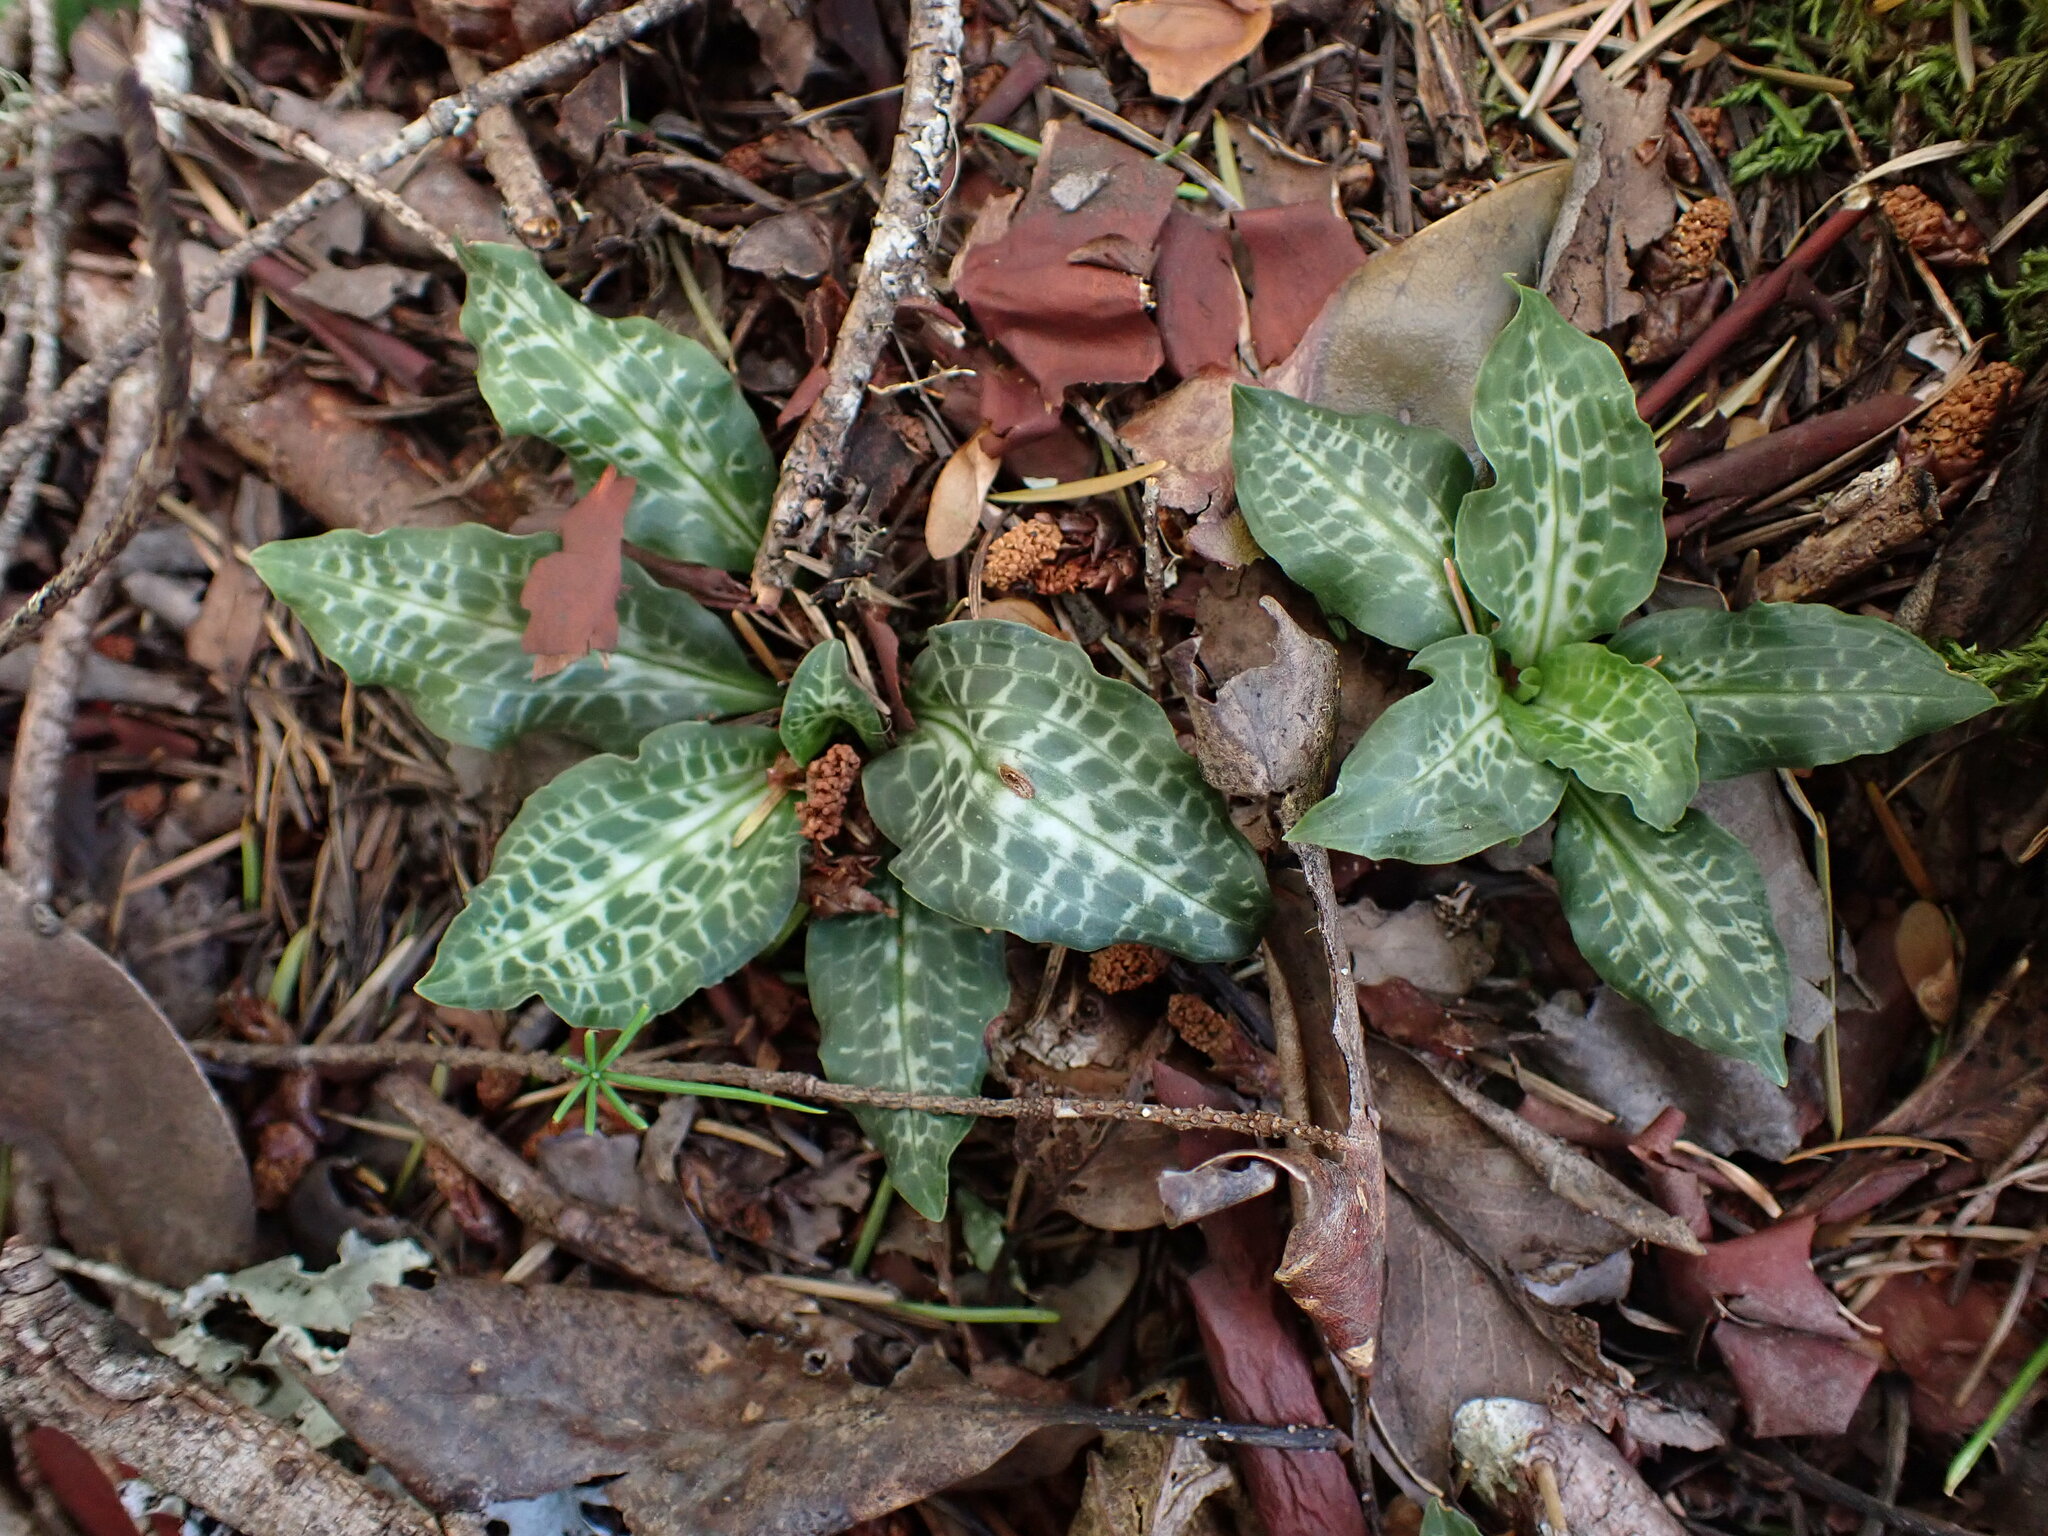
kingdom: Plantae
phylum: Tracheophyta
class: Liliopsida
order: Asparagales
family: Orchidaceae
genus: Goodyera
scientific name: Goodyera oblongifolia
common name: Giant rattlesnake-plantain
